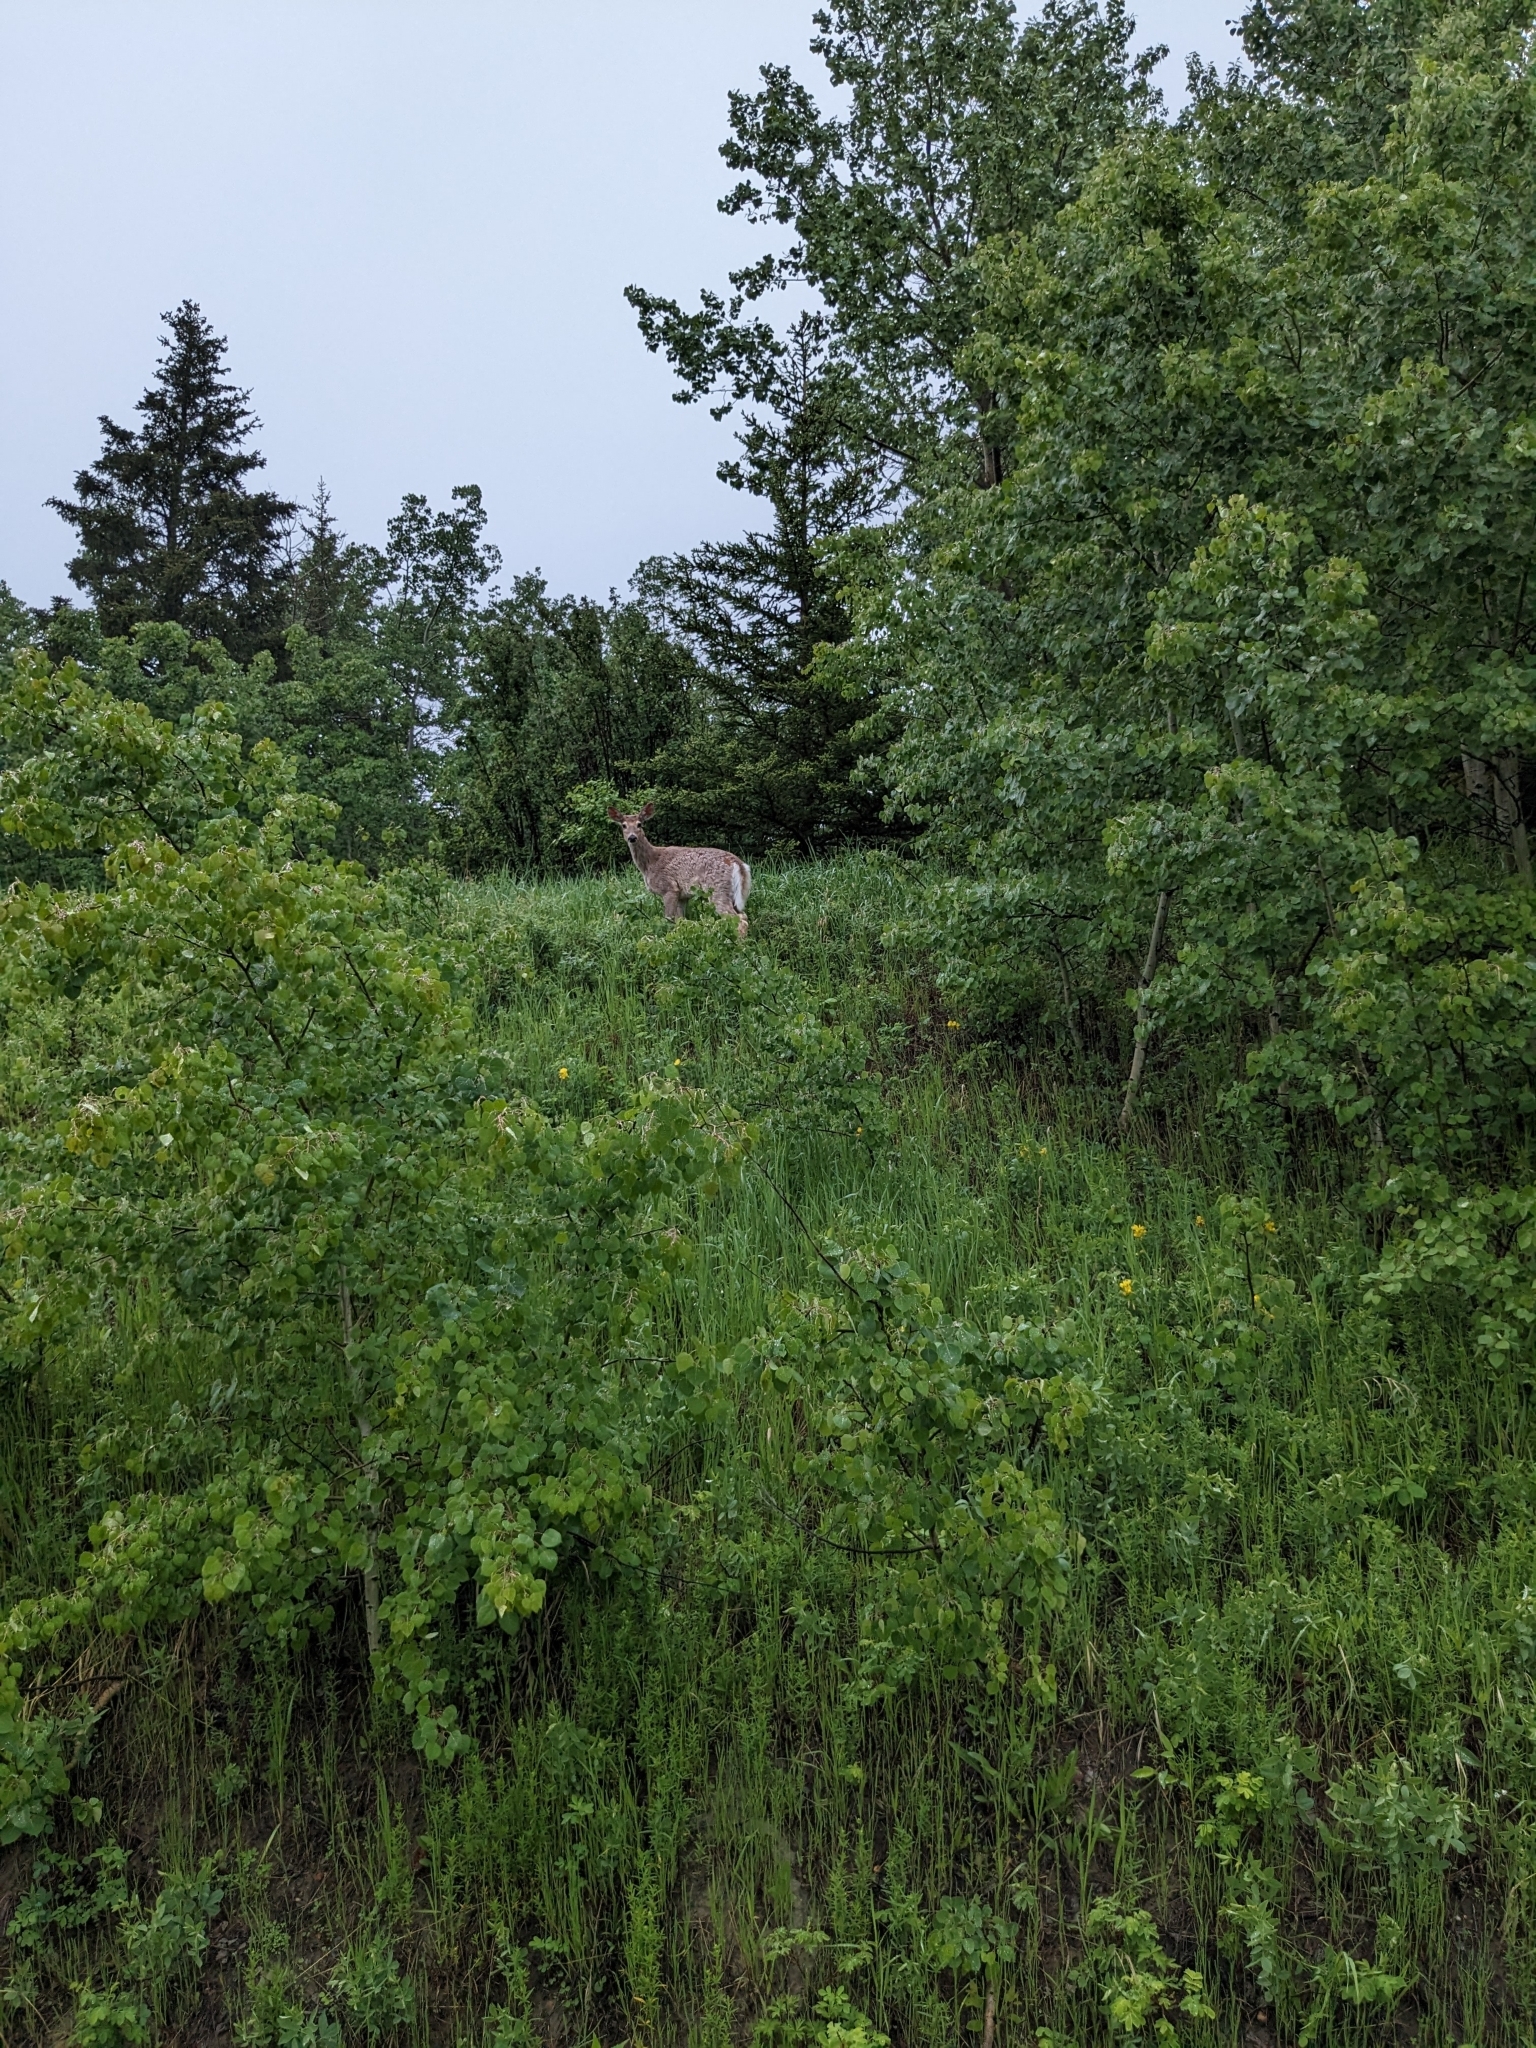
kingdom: Animalia
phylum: Chordata
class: Mammalia
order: Artiodactyla
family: Cervidae
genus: Odocoileus
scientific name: Odocoileus virginianus
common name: White-tailed deer
